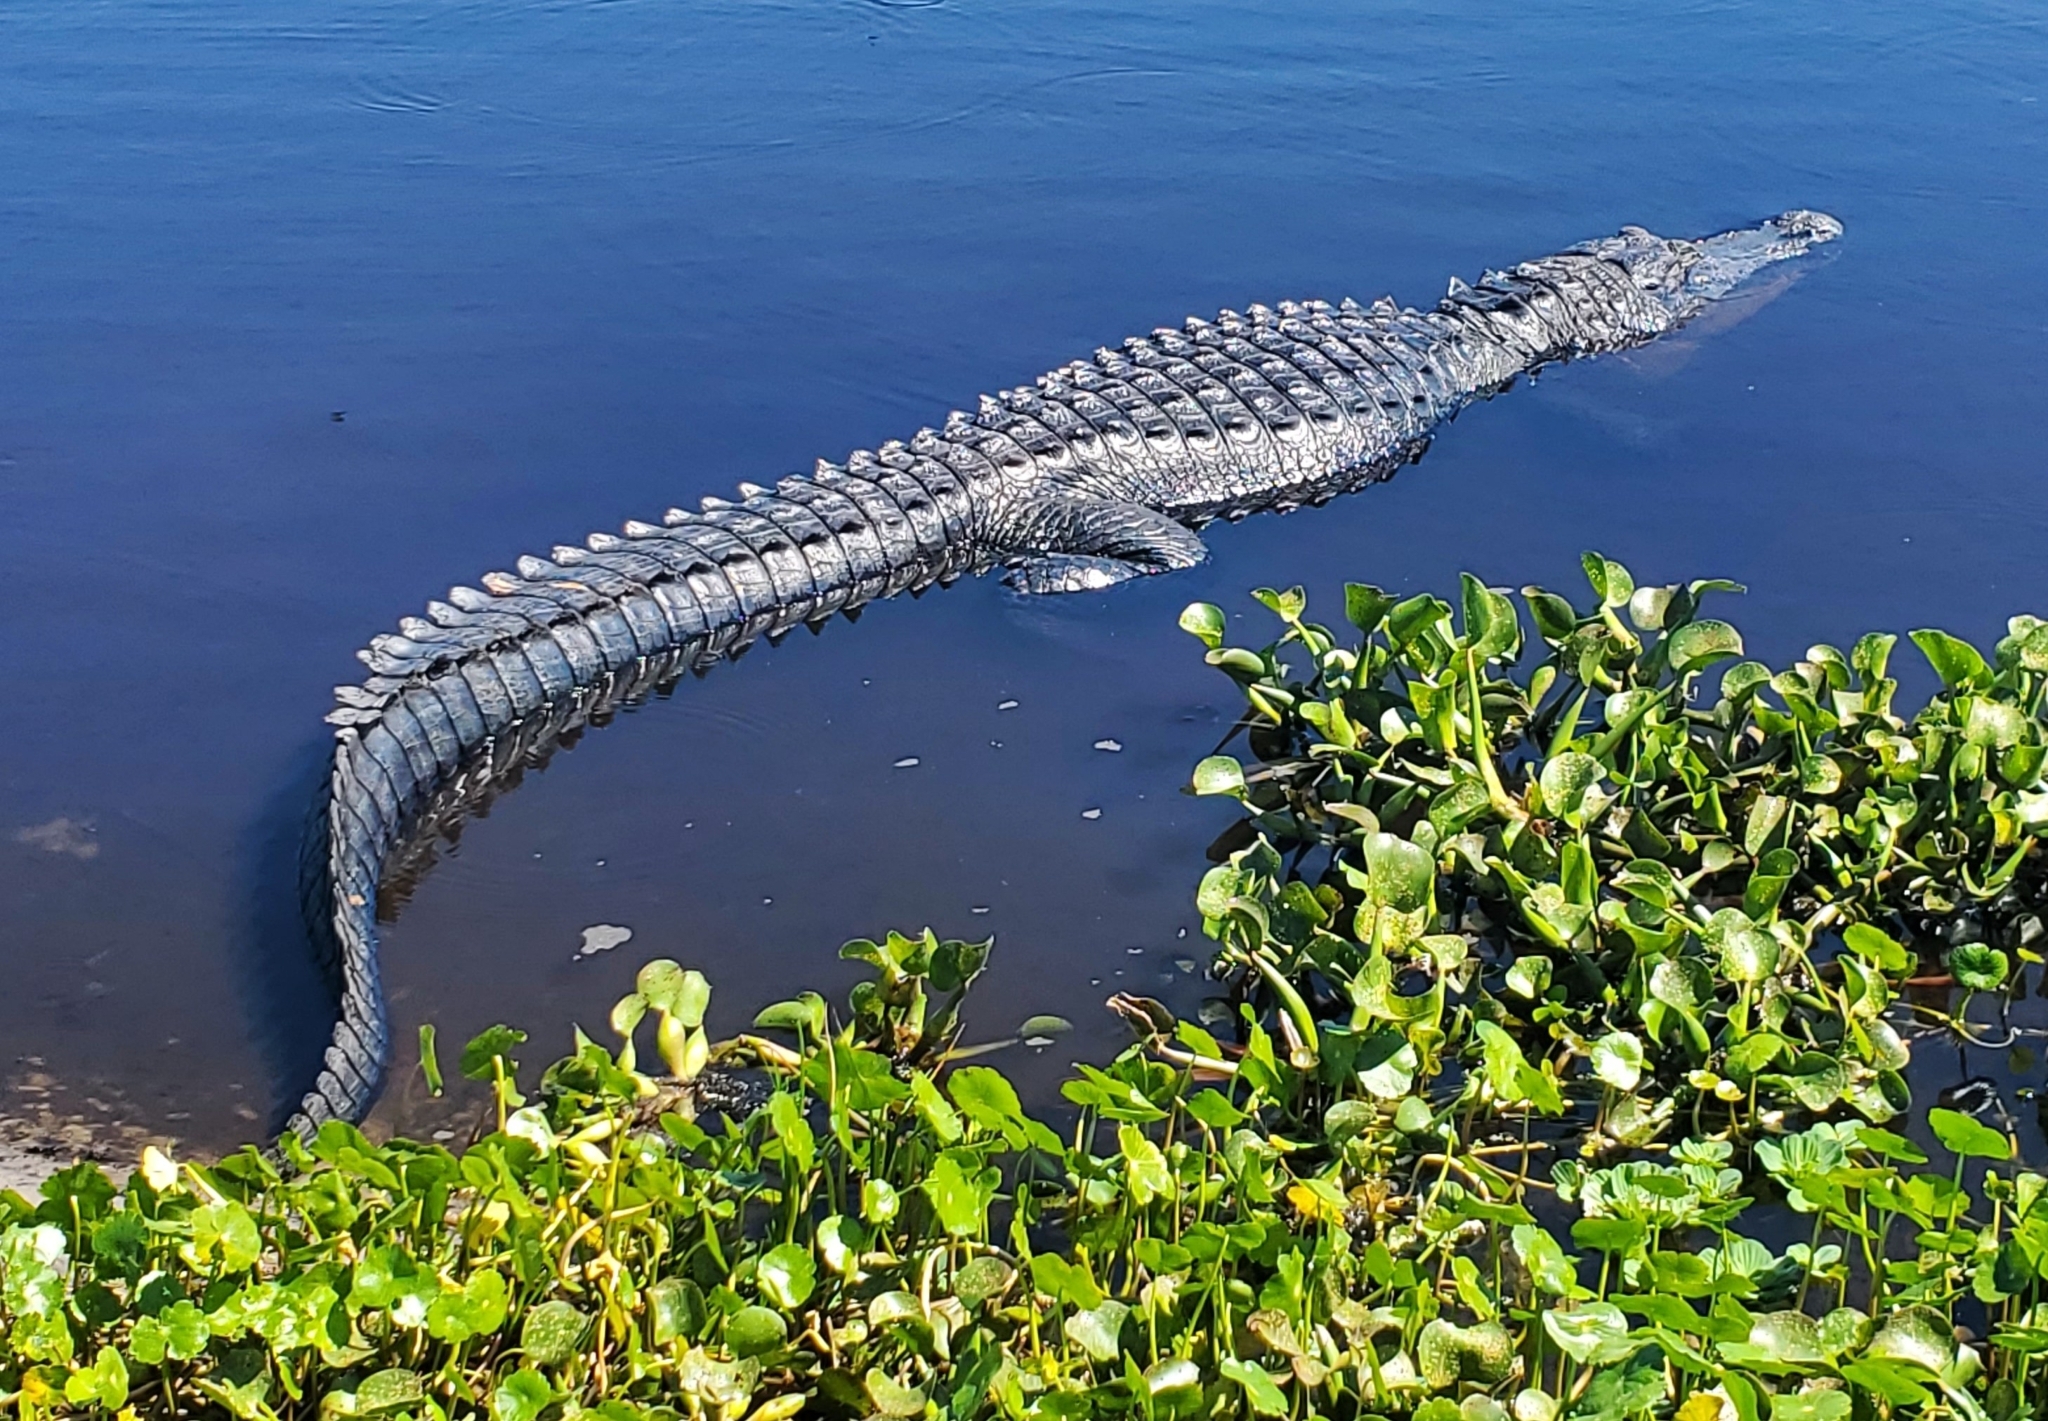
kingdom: Animalia
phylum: Chordata
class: Crocodylia
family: Alligatoridae
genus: Alligator
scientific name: Alligator mississippiensis
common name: American alligator
